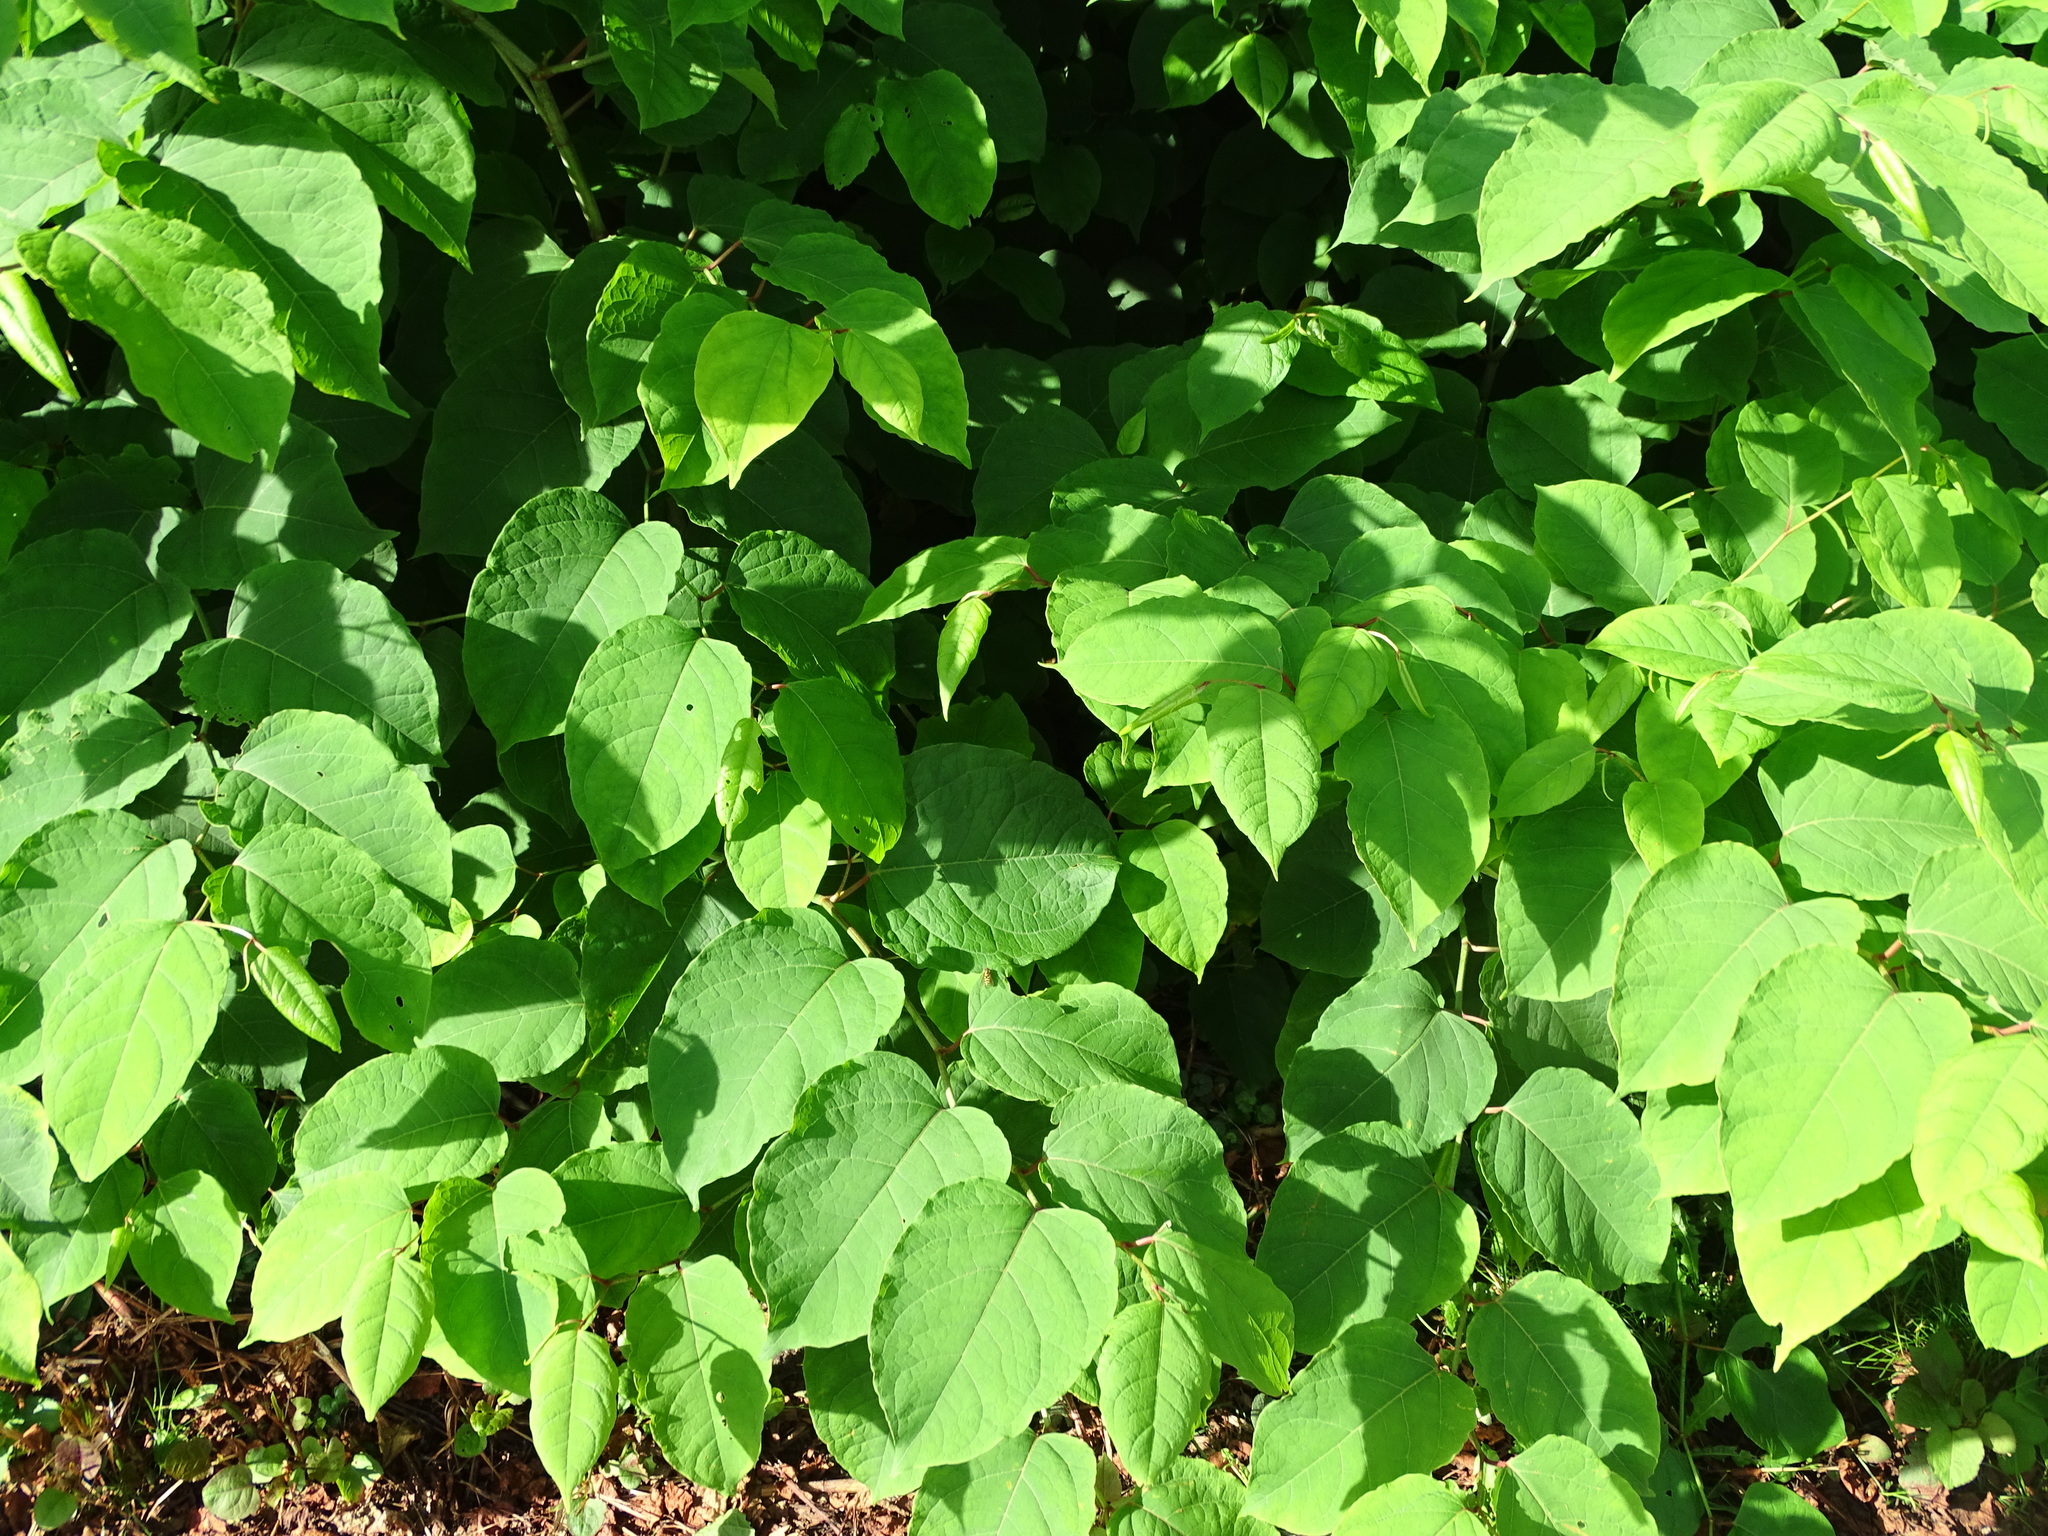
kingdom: Plantae
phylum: Tracheophyta
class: Magnoliopsida
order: Caryophyllales
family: Polygonaceae
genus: Reynoutria
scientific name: Reynoutria bohemica
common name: Bohemian knotweed
